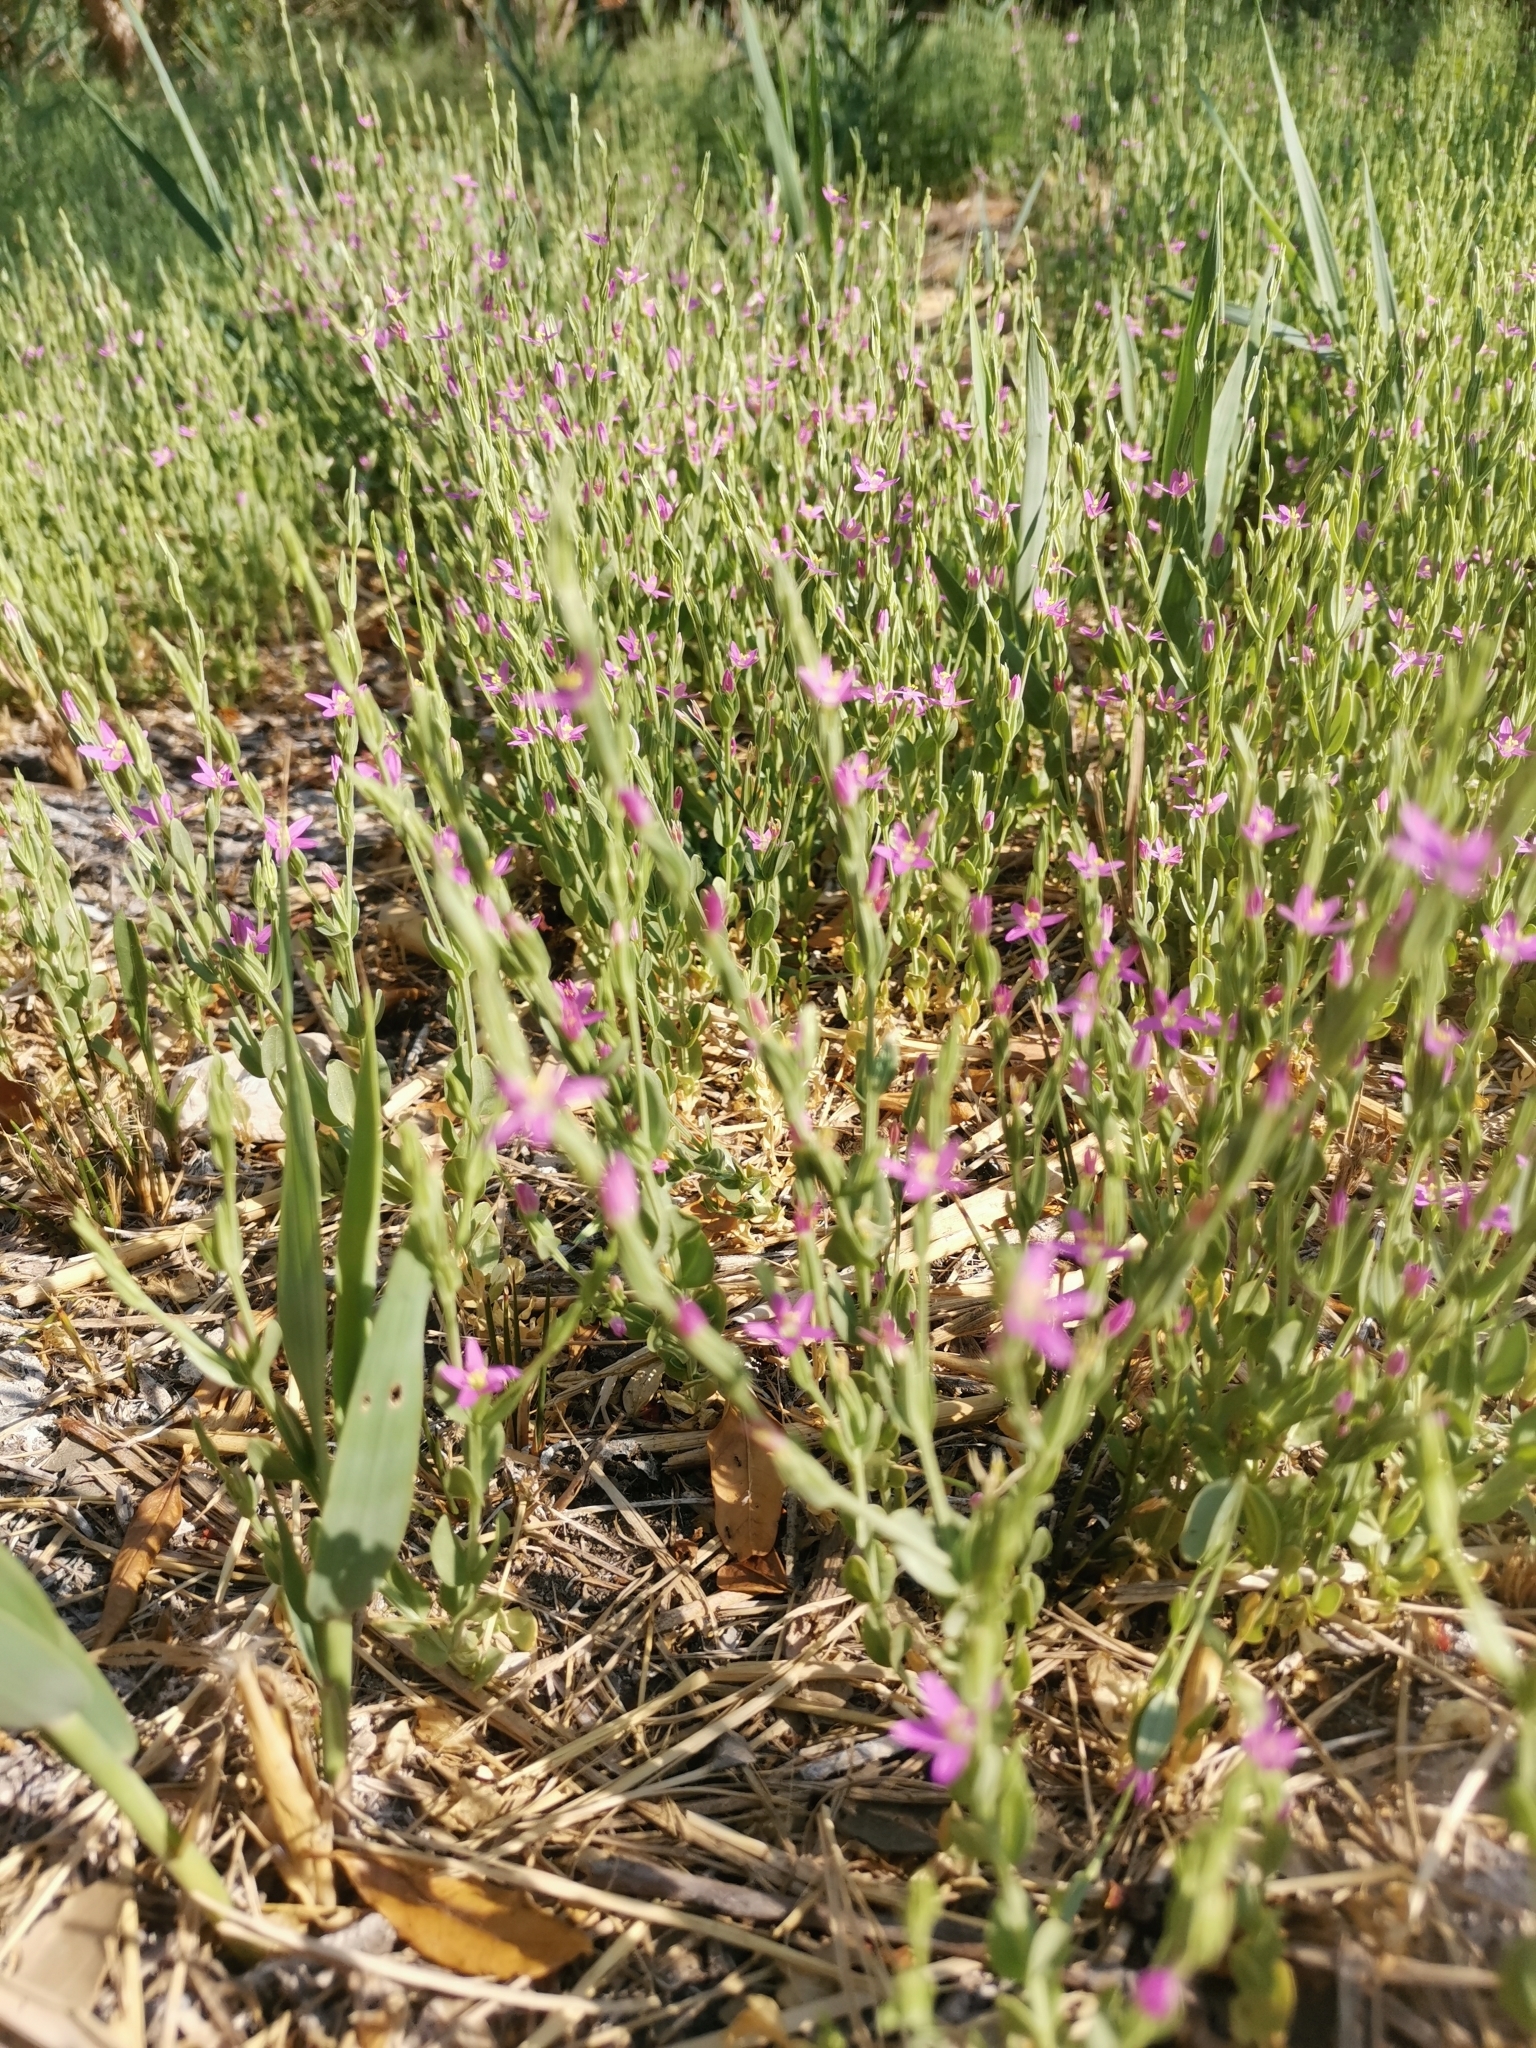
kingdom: Plantae
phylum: Tracheophyta
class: Magnoliopsida
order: Gentianales
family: Gentianaceae
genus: Schenkia
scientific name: Schenkia spicata
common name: Spiked centaury
